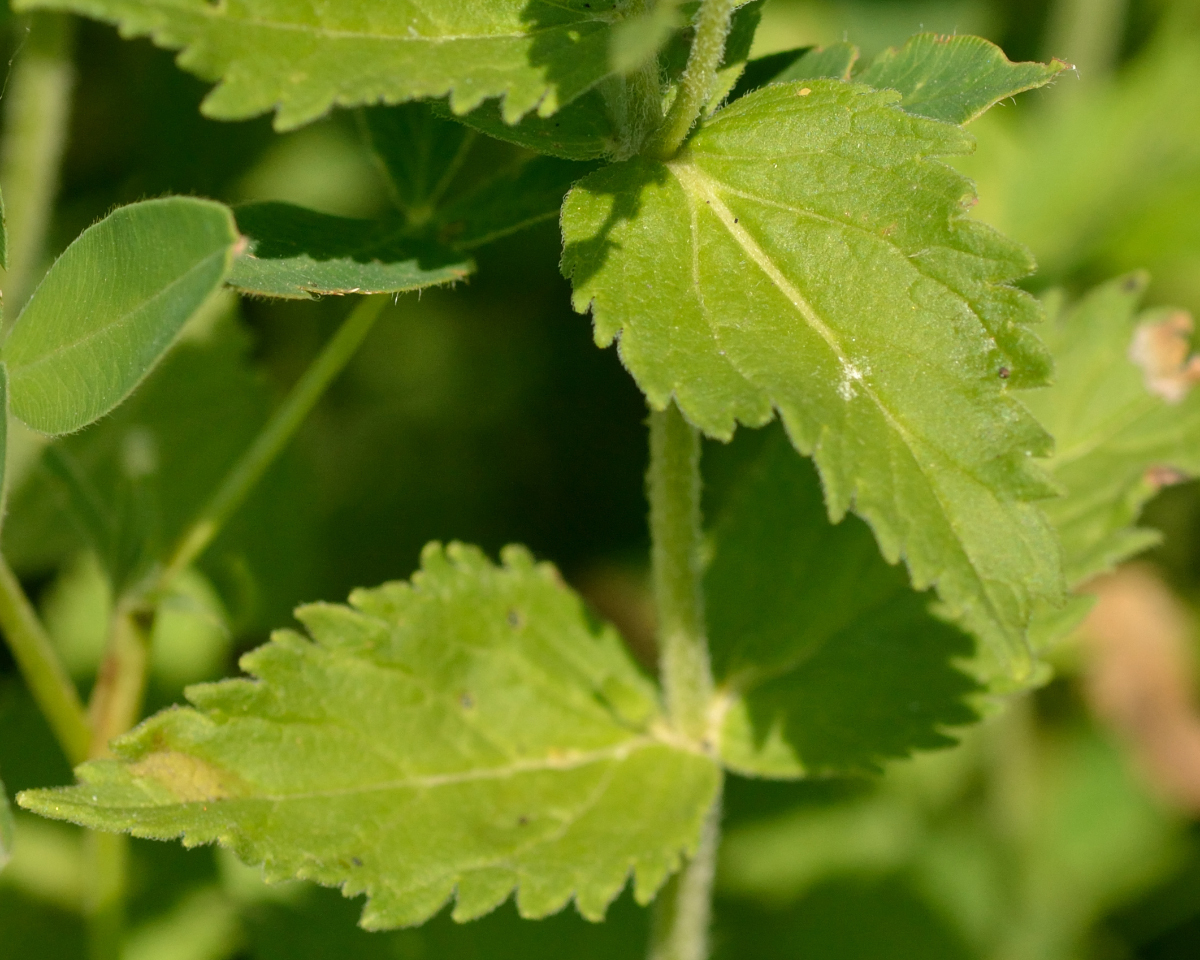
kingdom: Plantae
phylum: Tracheophyta
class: Magnoliopsida
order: Lamiales
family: Plantaginaceae
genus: Veronica
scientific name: Veronica teucrium
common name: Large speedwell
